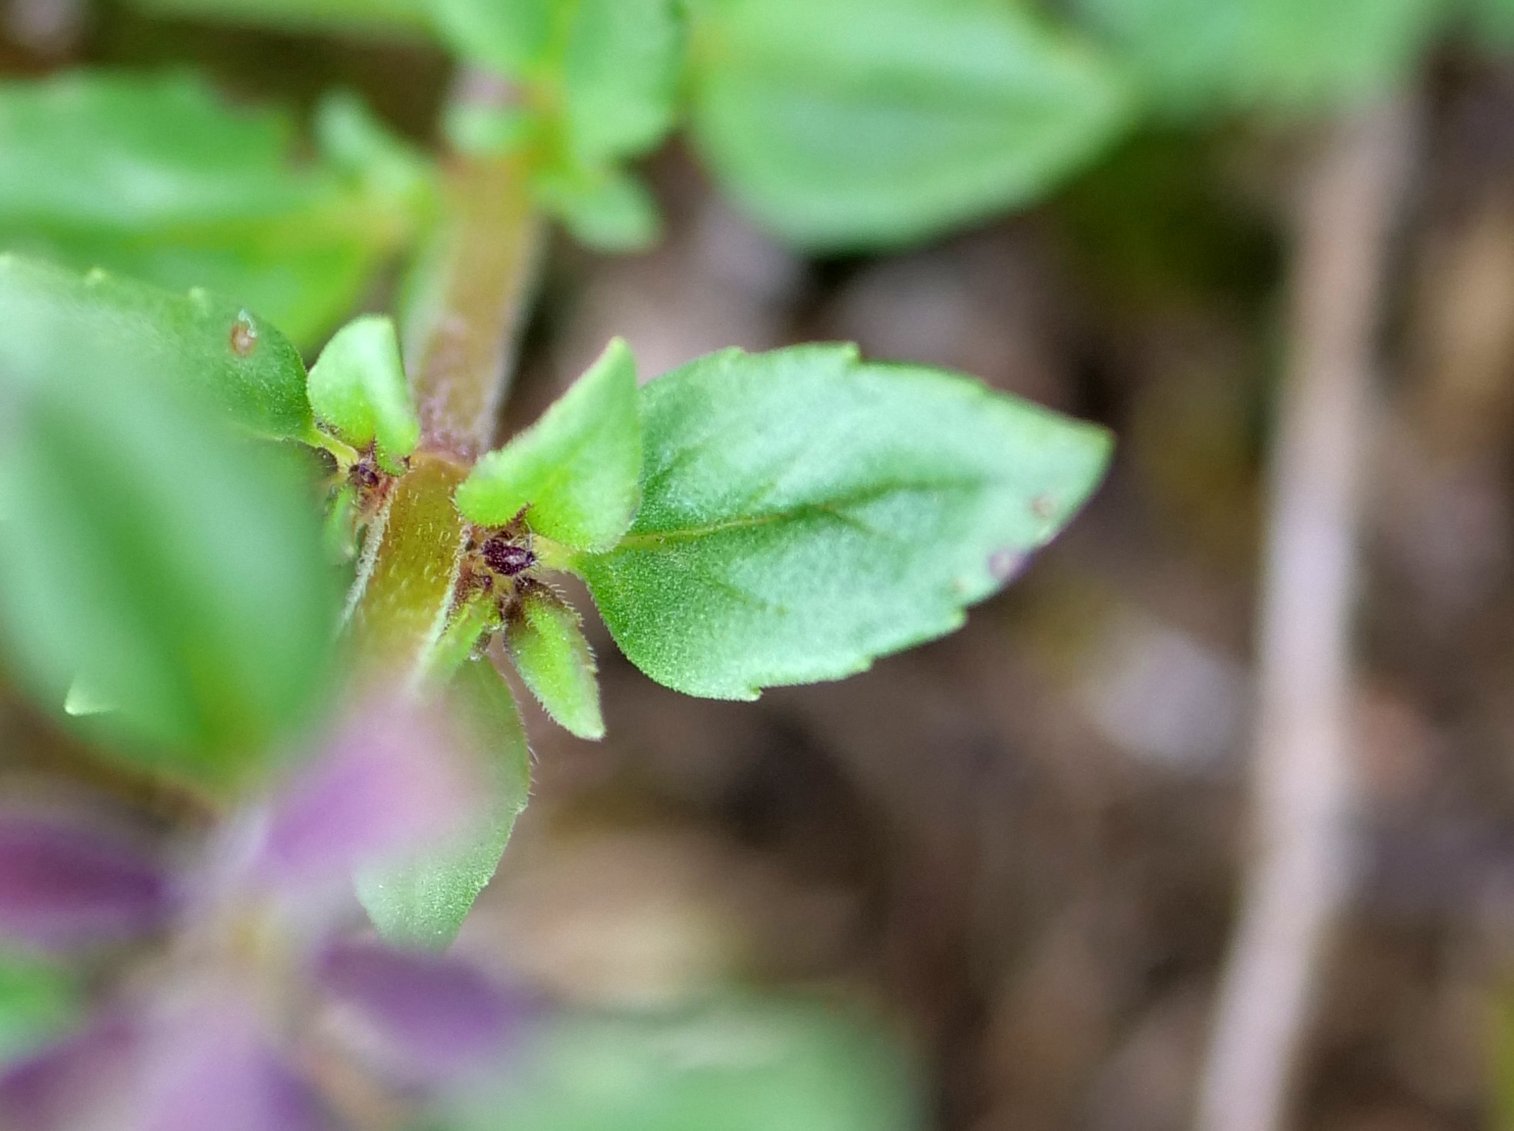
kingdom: Plantae
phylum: Tracheophyta
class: Magnoliopsida
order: Lamiales
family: Lamiaceae
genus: Clinopodium
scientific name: Clinopodium acinos
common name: Basil thyme
